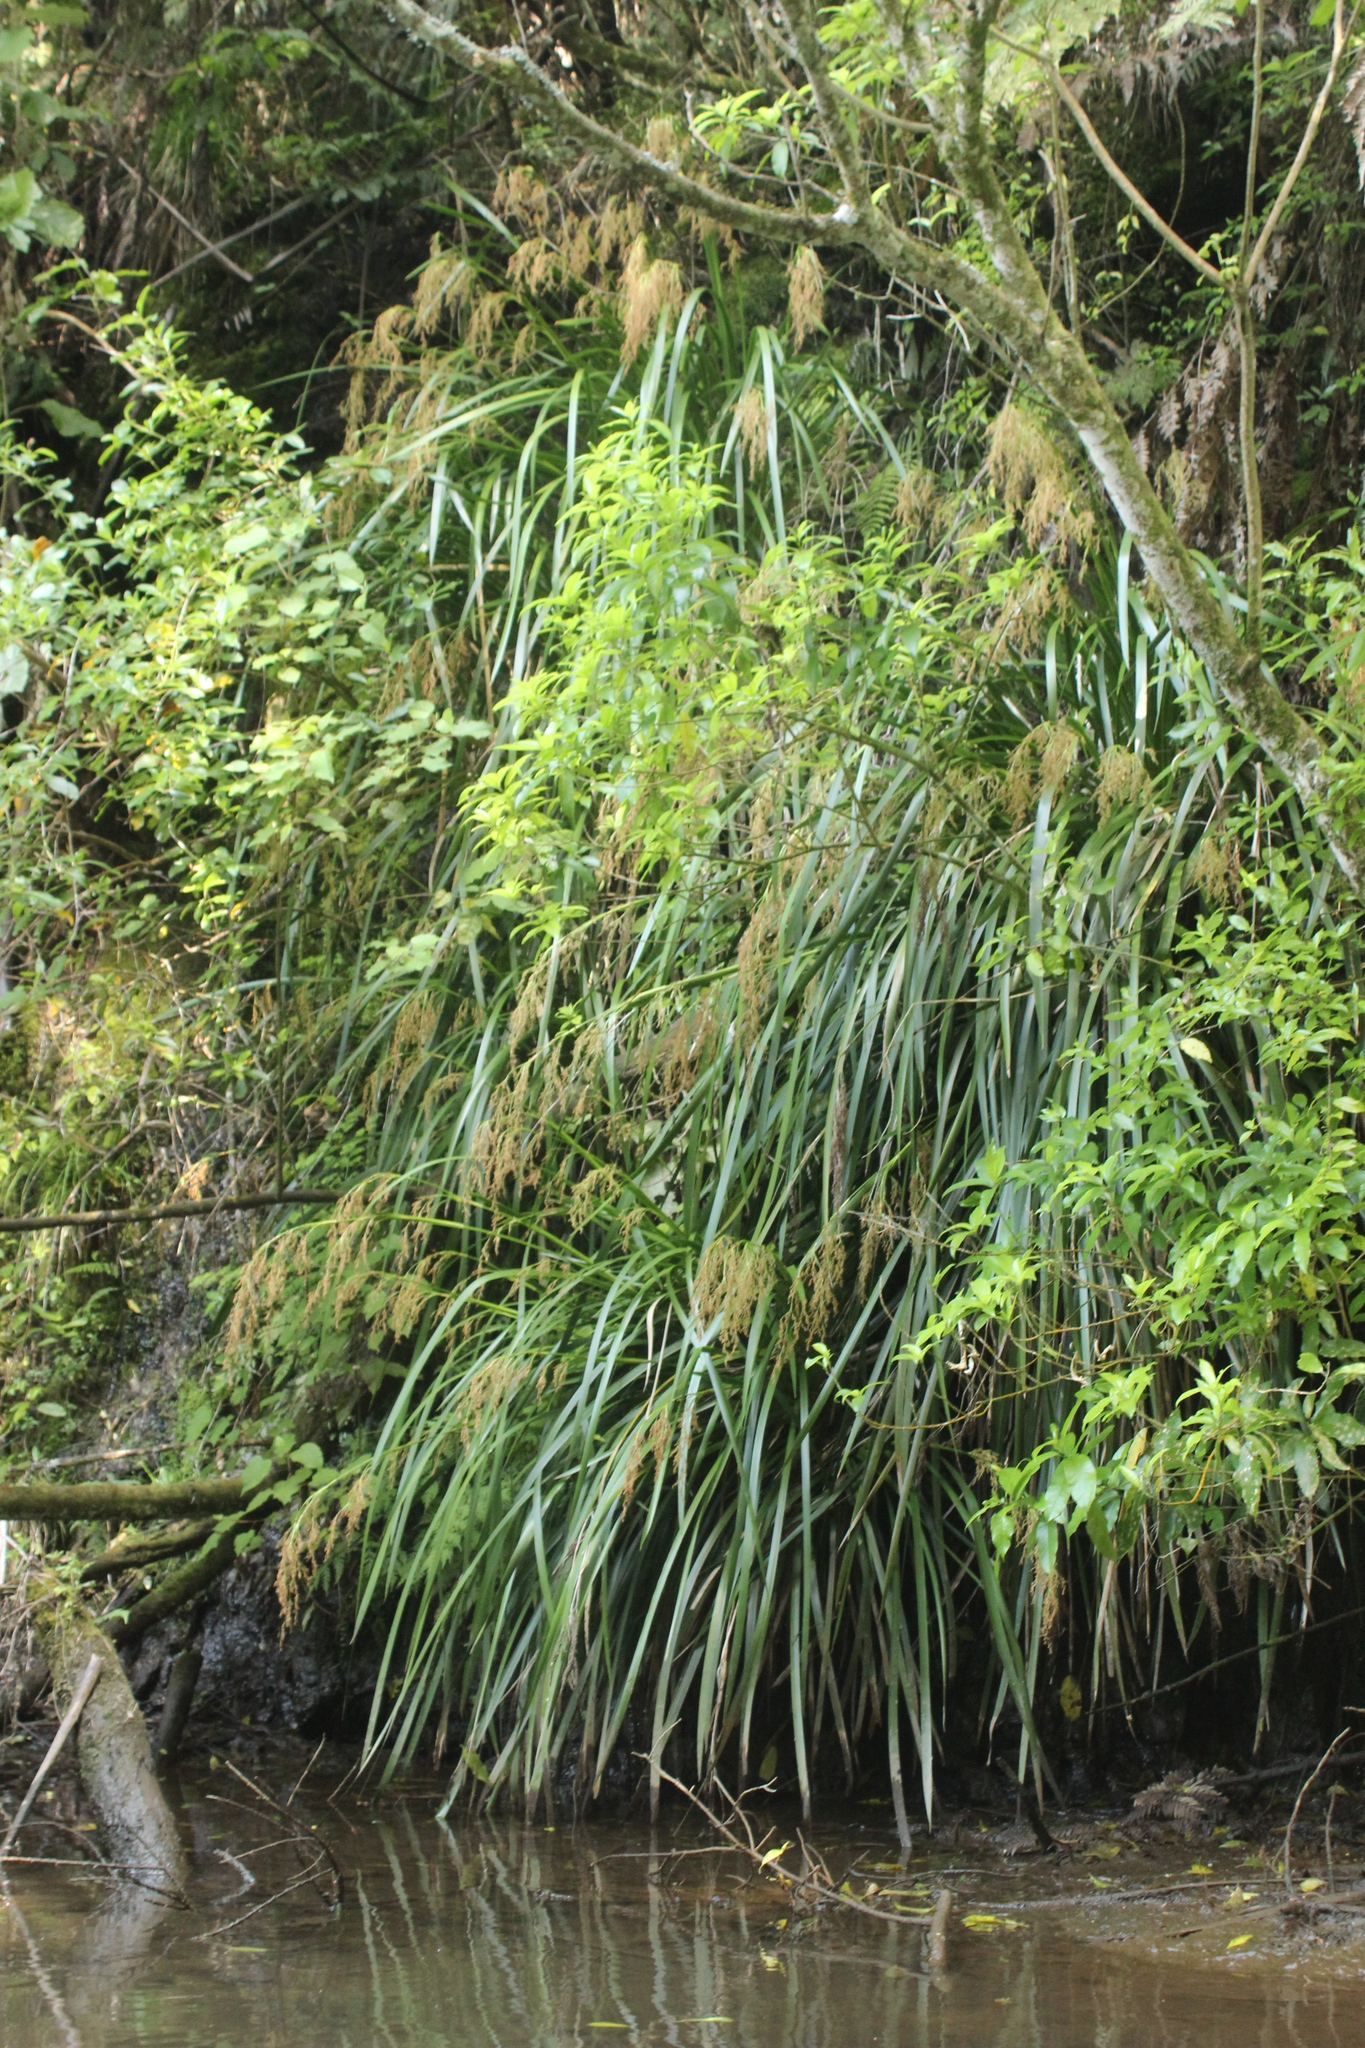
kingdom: Plantae
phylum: Tracheophyta
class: Liliopsida
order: Poales
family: Cyperaceae
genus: Machaerina
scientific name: Machaerina sinclairii
